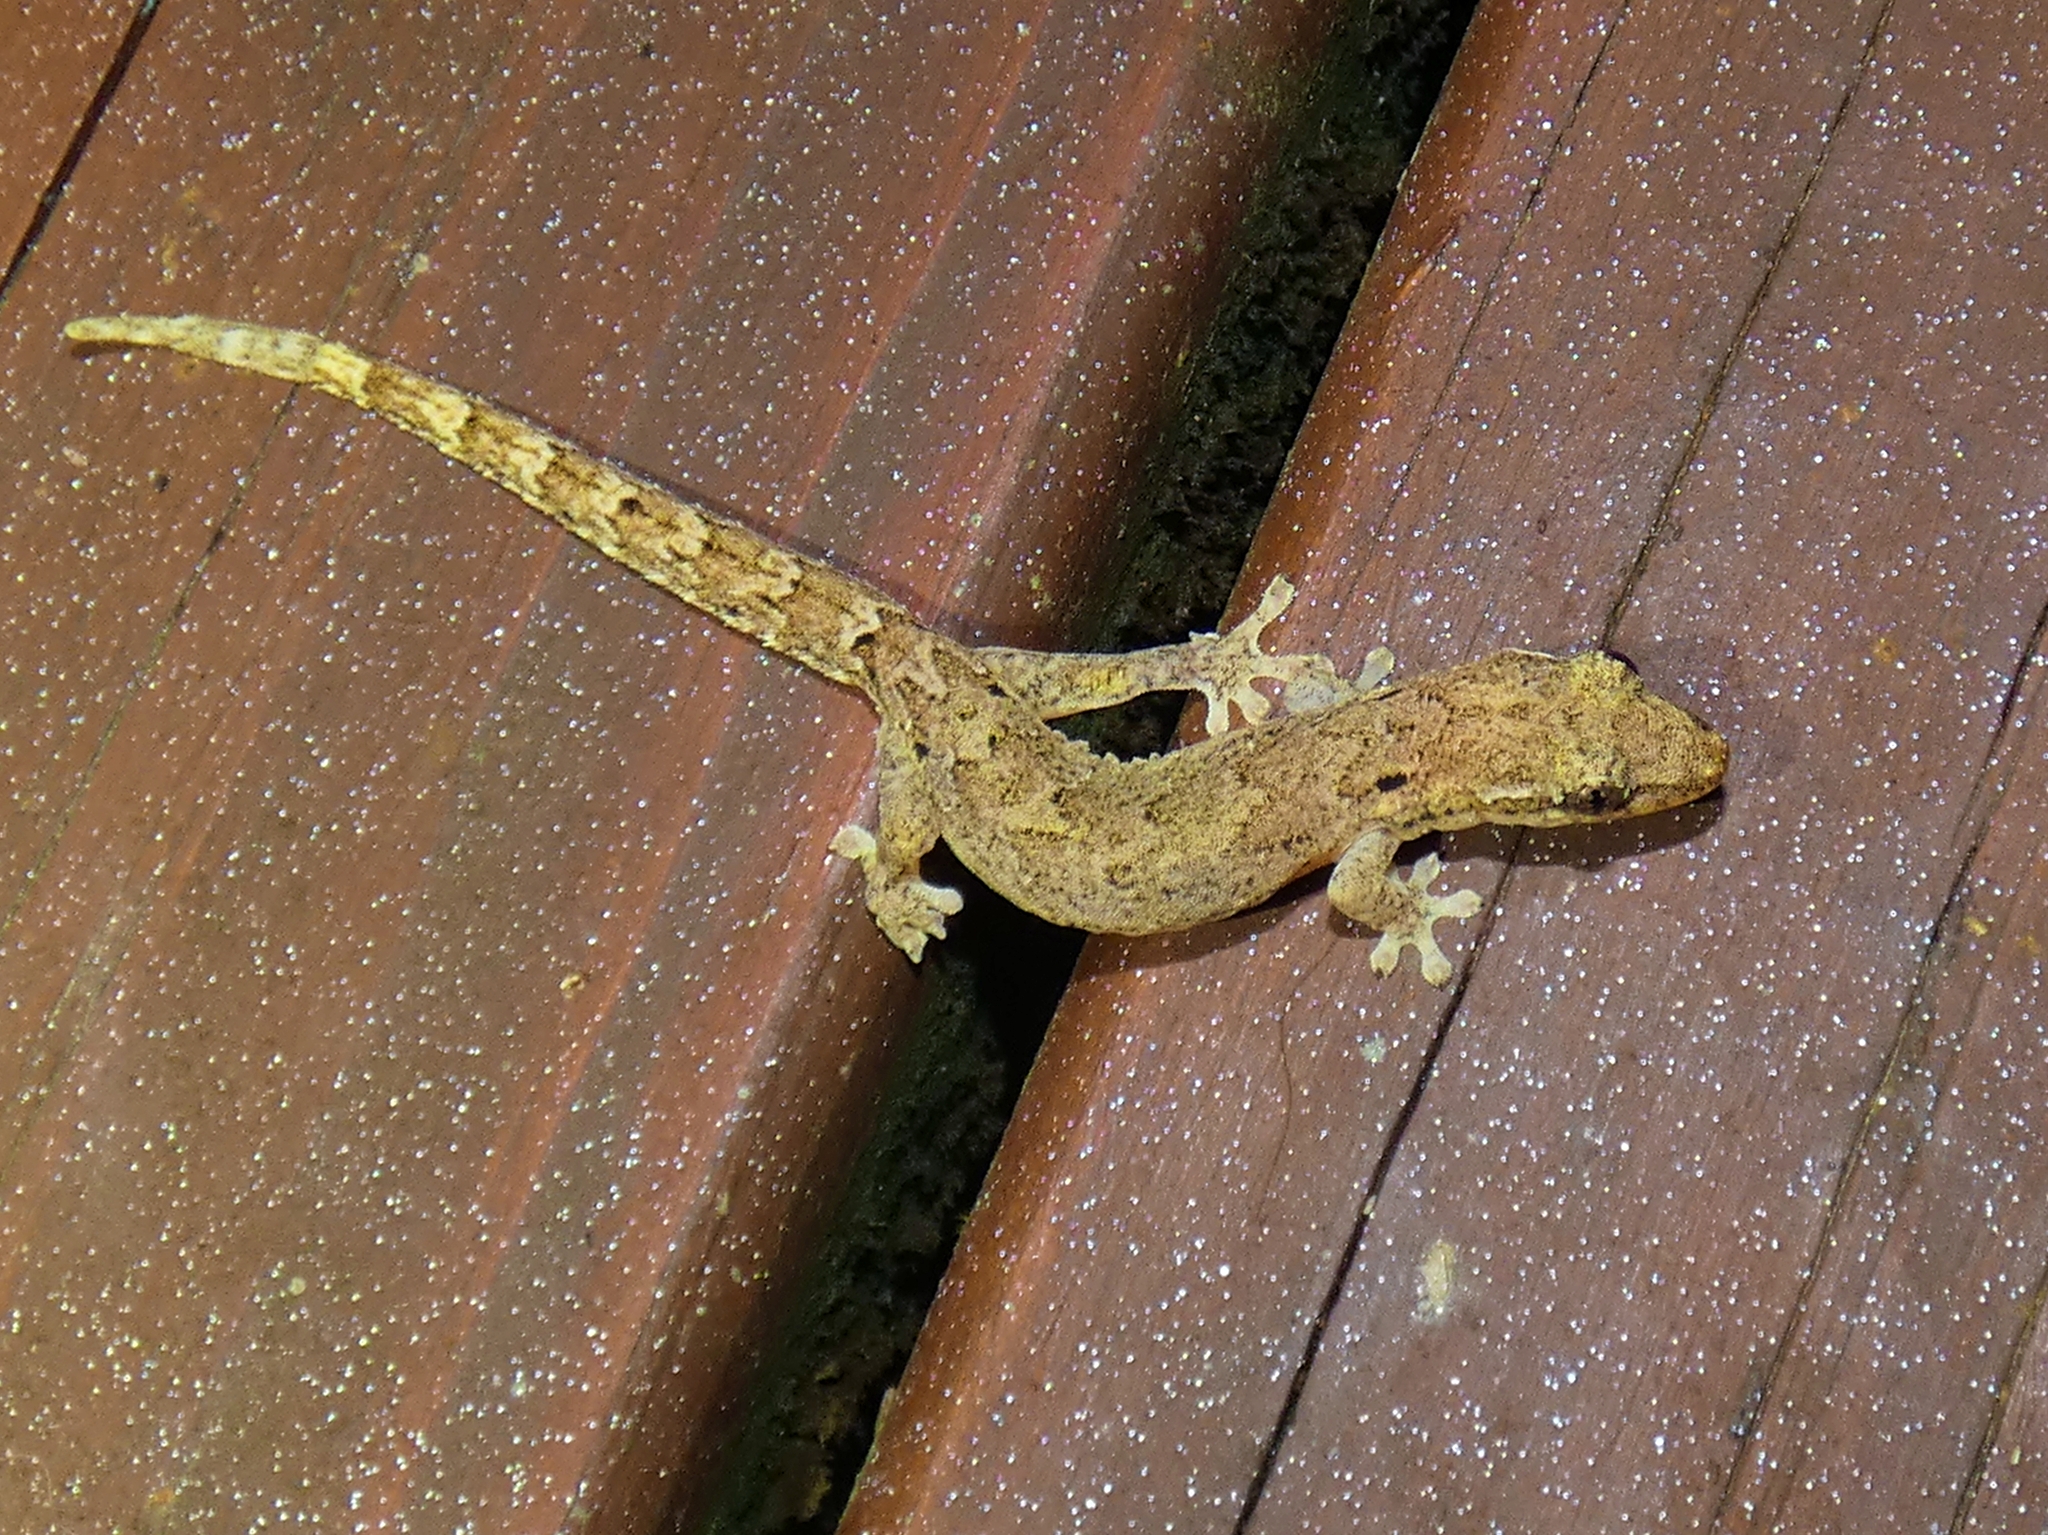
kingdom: Animalia
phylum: Chordata
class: Squamata
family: Gekkonidae
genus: Lepidodactylus
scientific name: Lepidodactylus lugubris
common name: Mourning gecko
